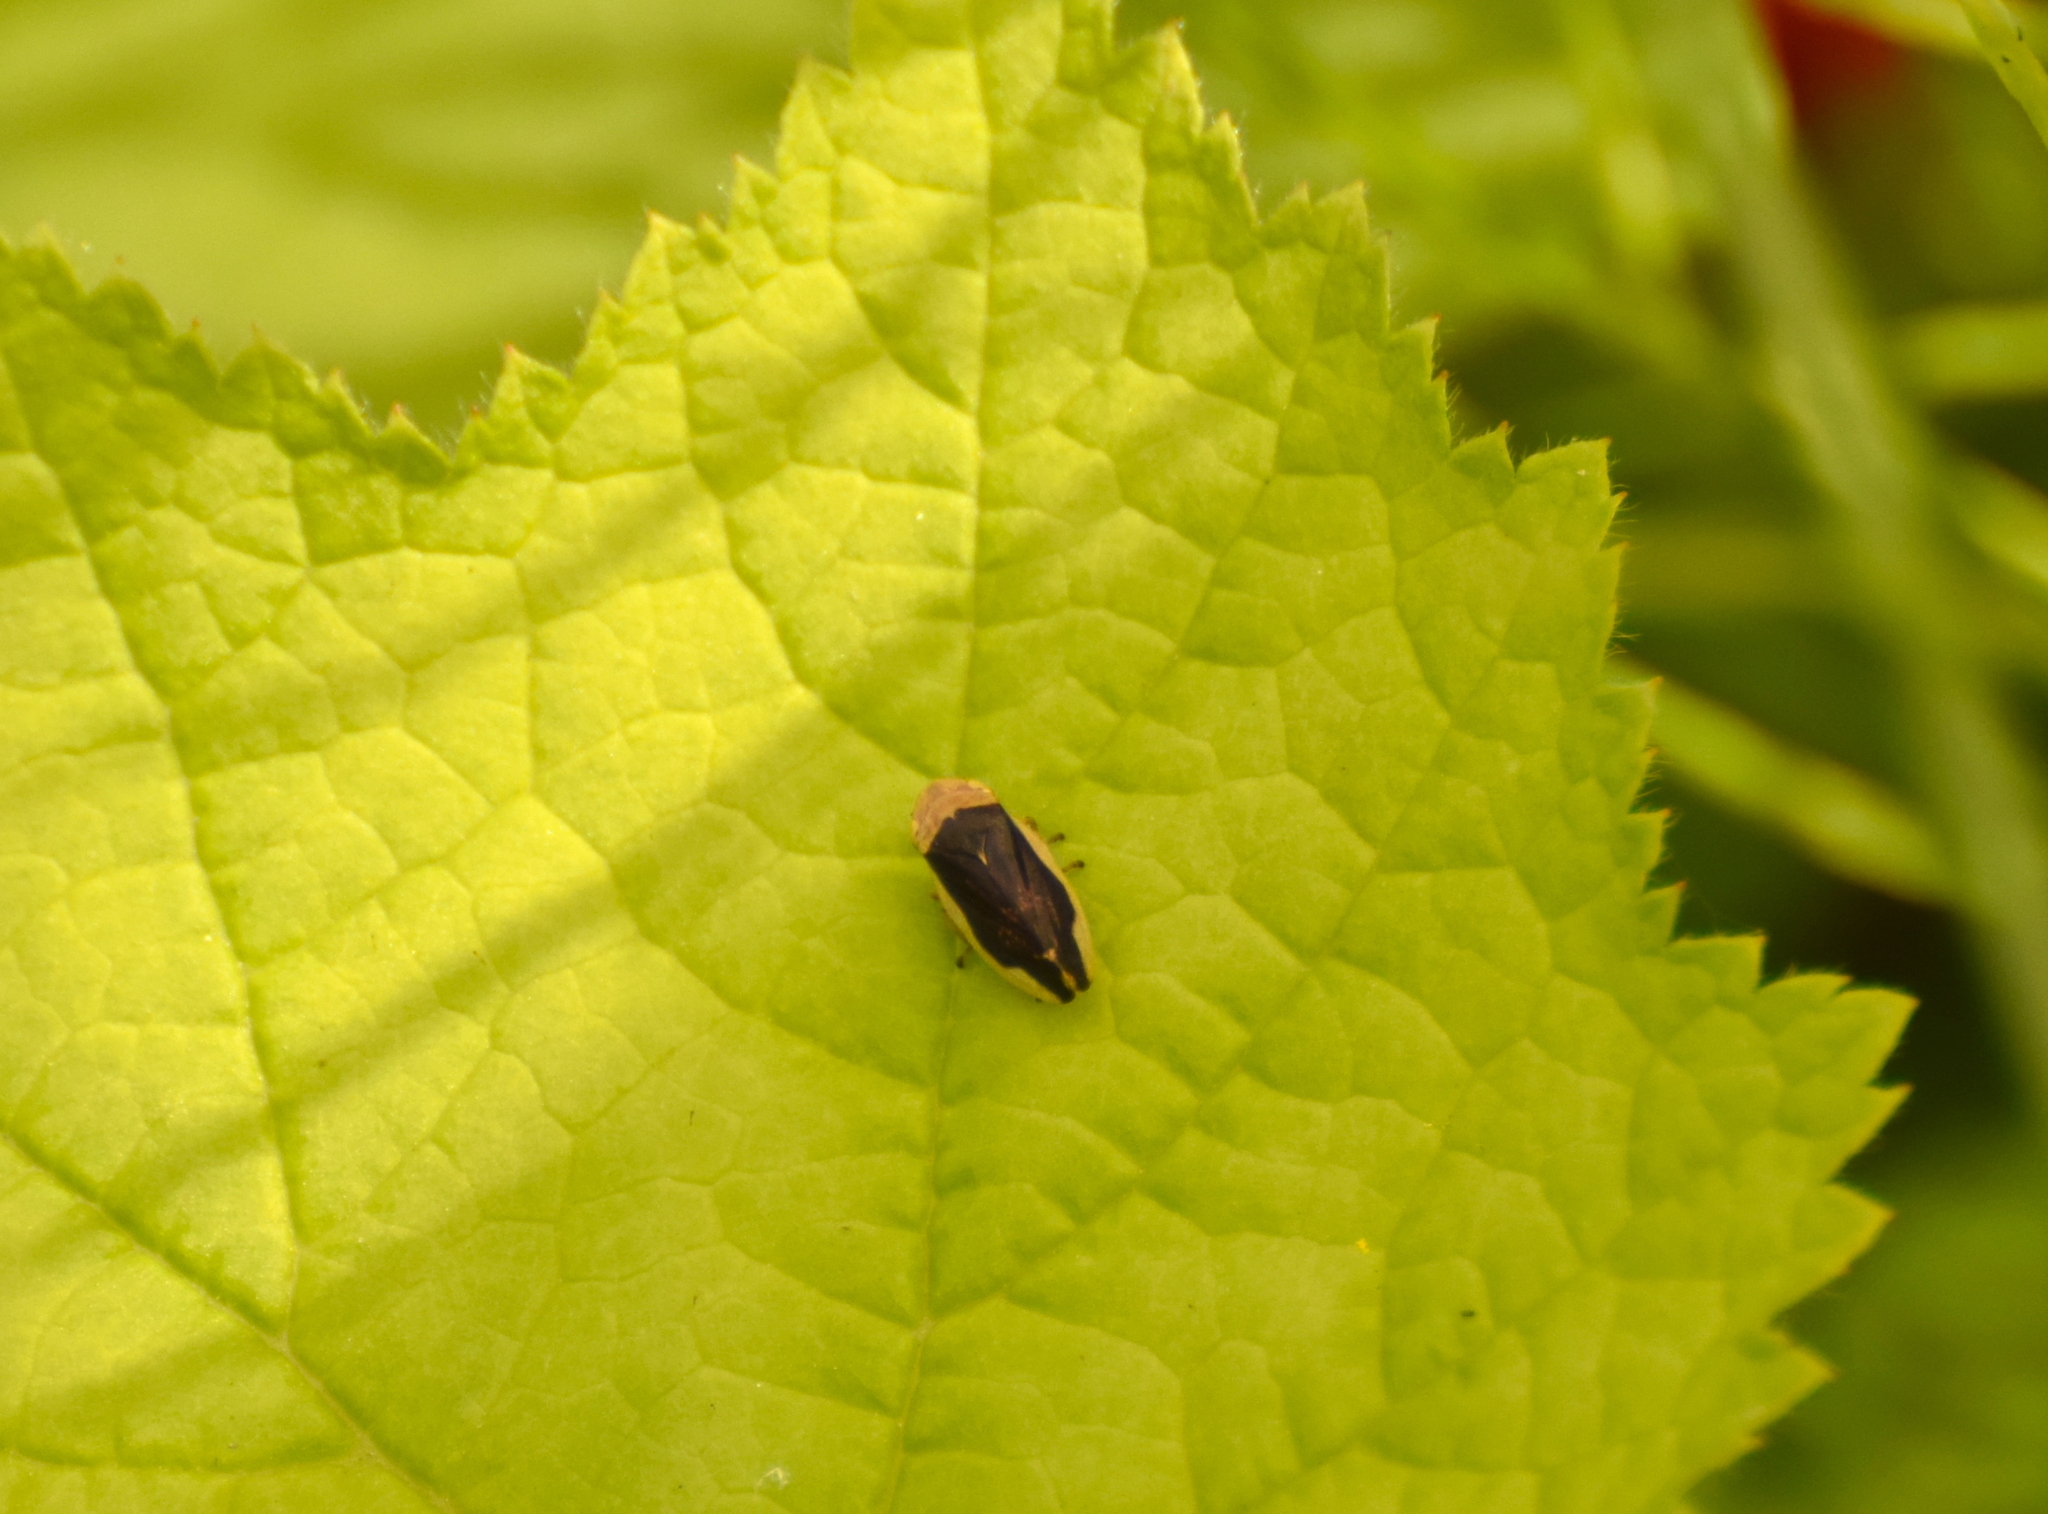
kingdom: Animalia
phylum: Arthropoda
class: Insecta
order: Hemiptera
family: Aphrophoridae
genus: Philaenus
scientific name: Philaenus spumarius
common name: Meadow spittlebug
